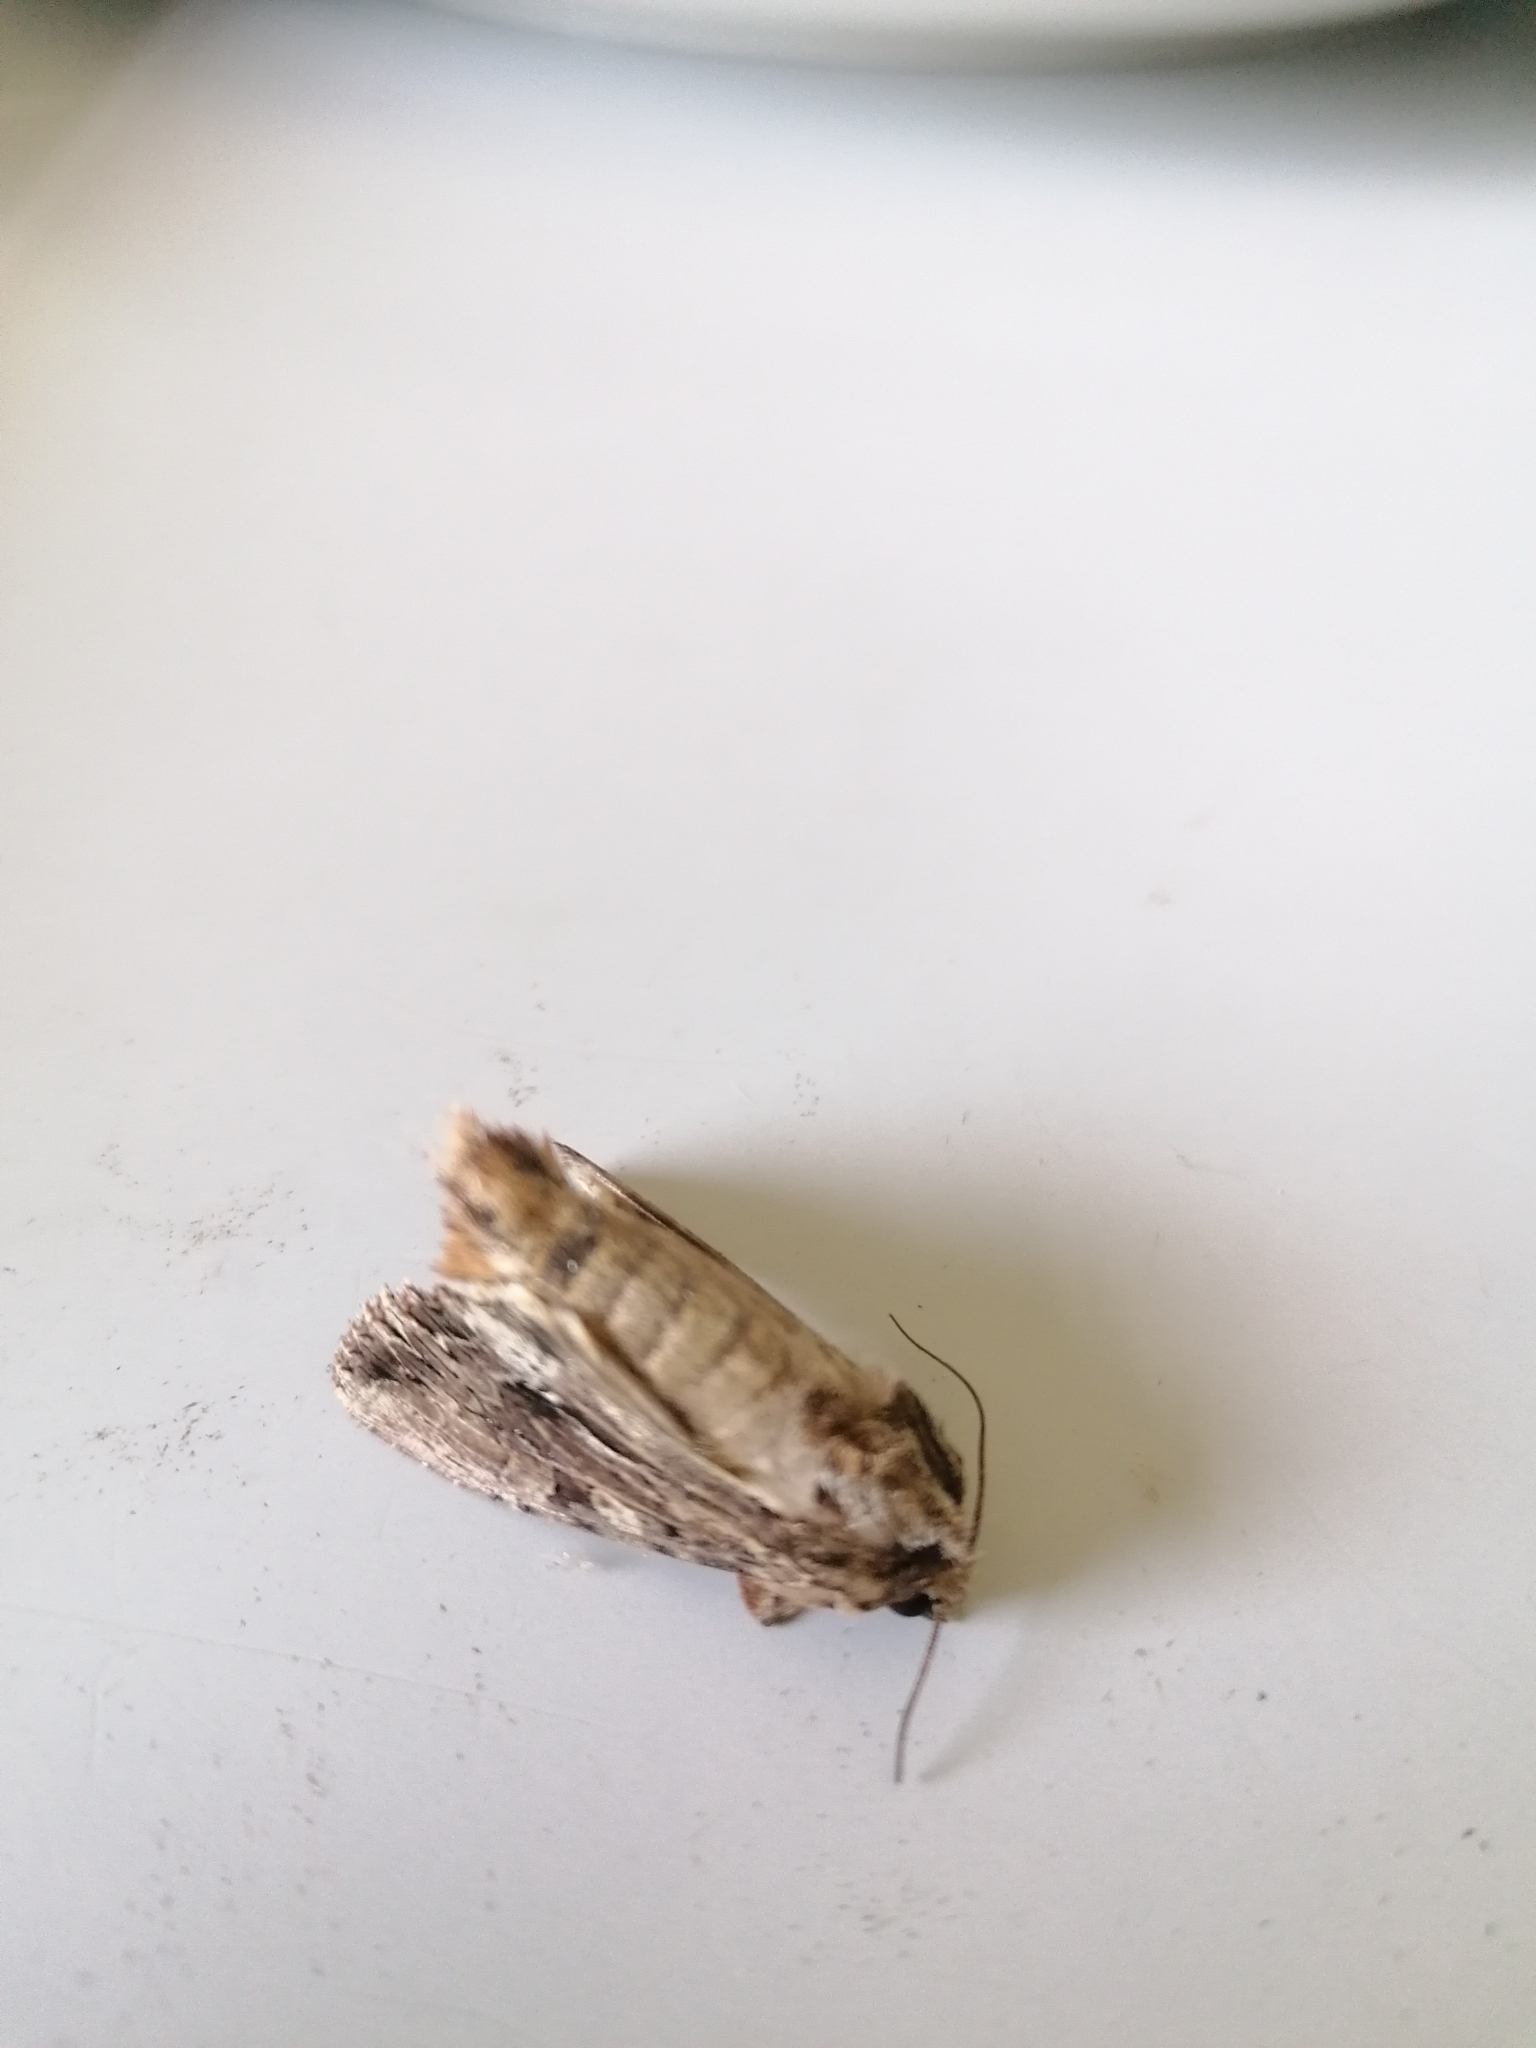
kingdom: Animalia
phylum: Arthropoda
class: Insecta
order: Lepidoptera
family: Noctuidae
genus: Apamea
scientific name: Apamea monoglypha
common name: Dark arches
